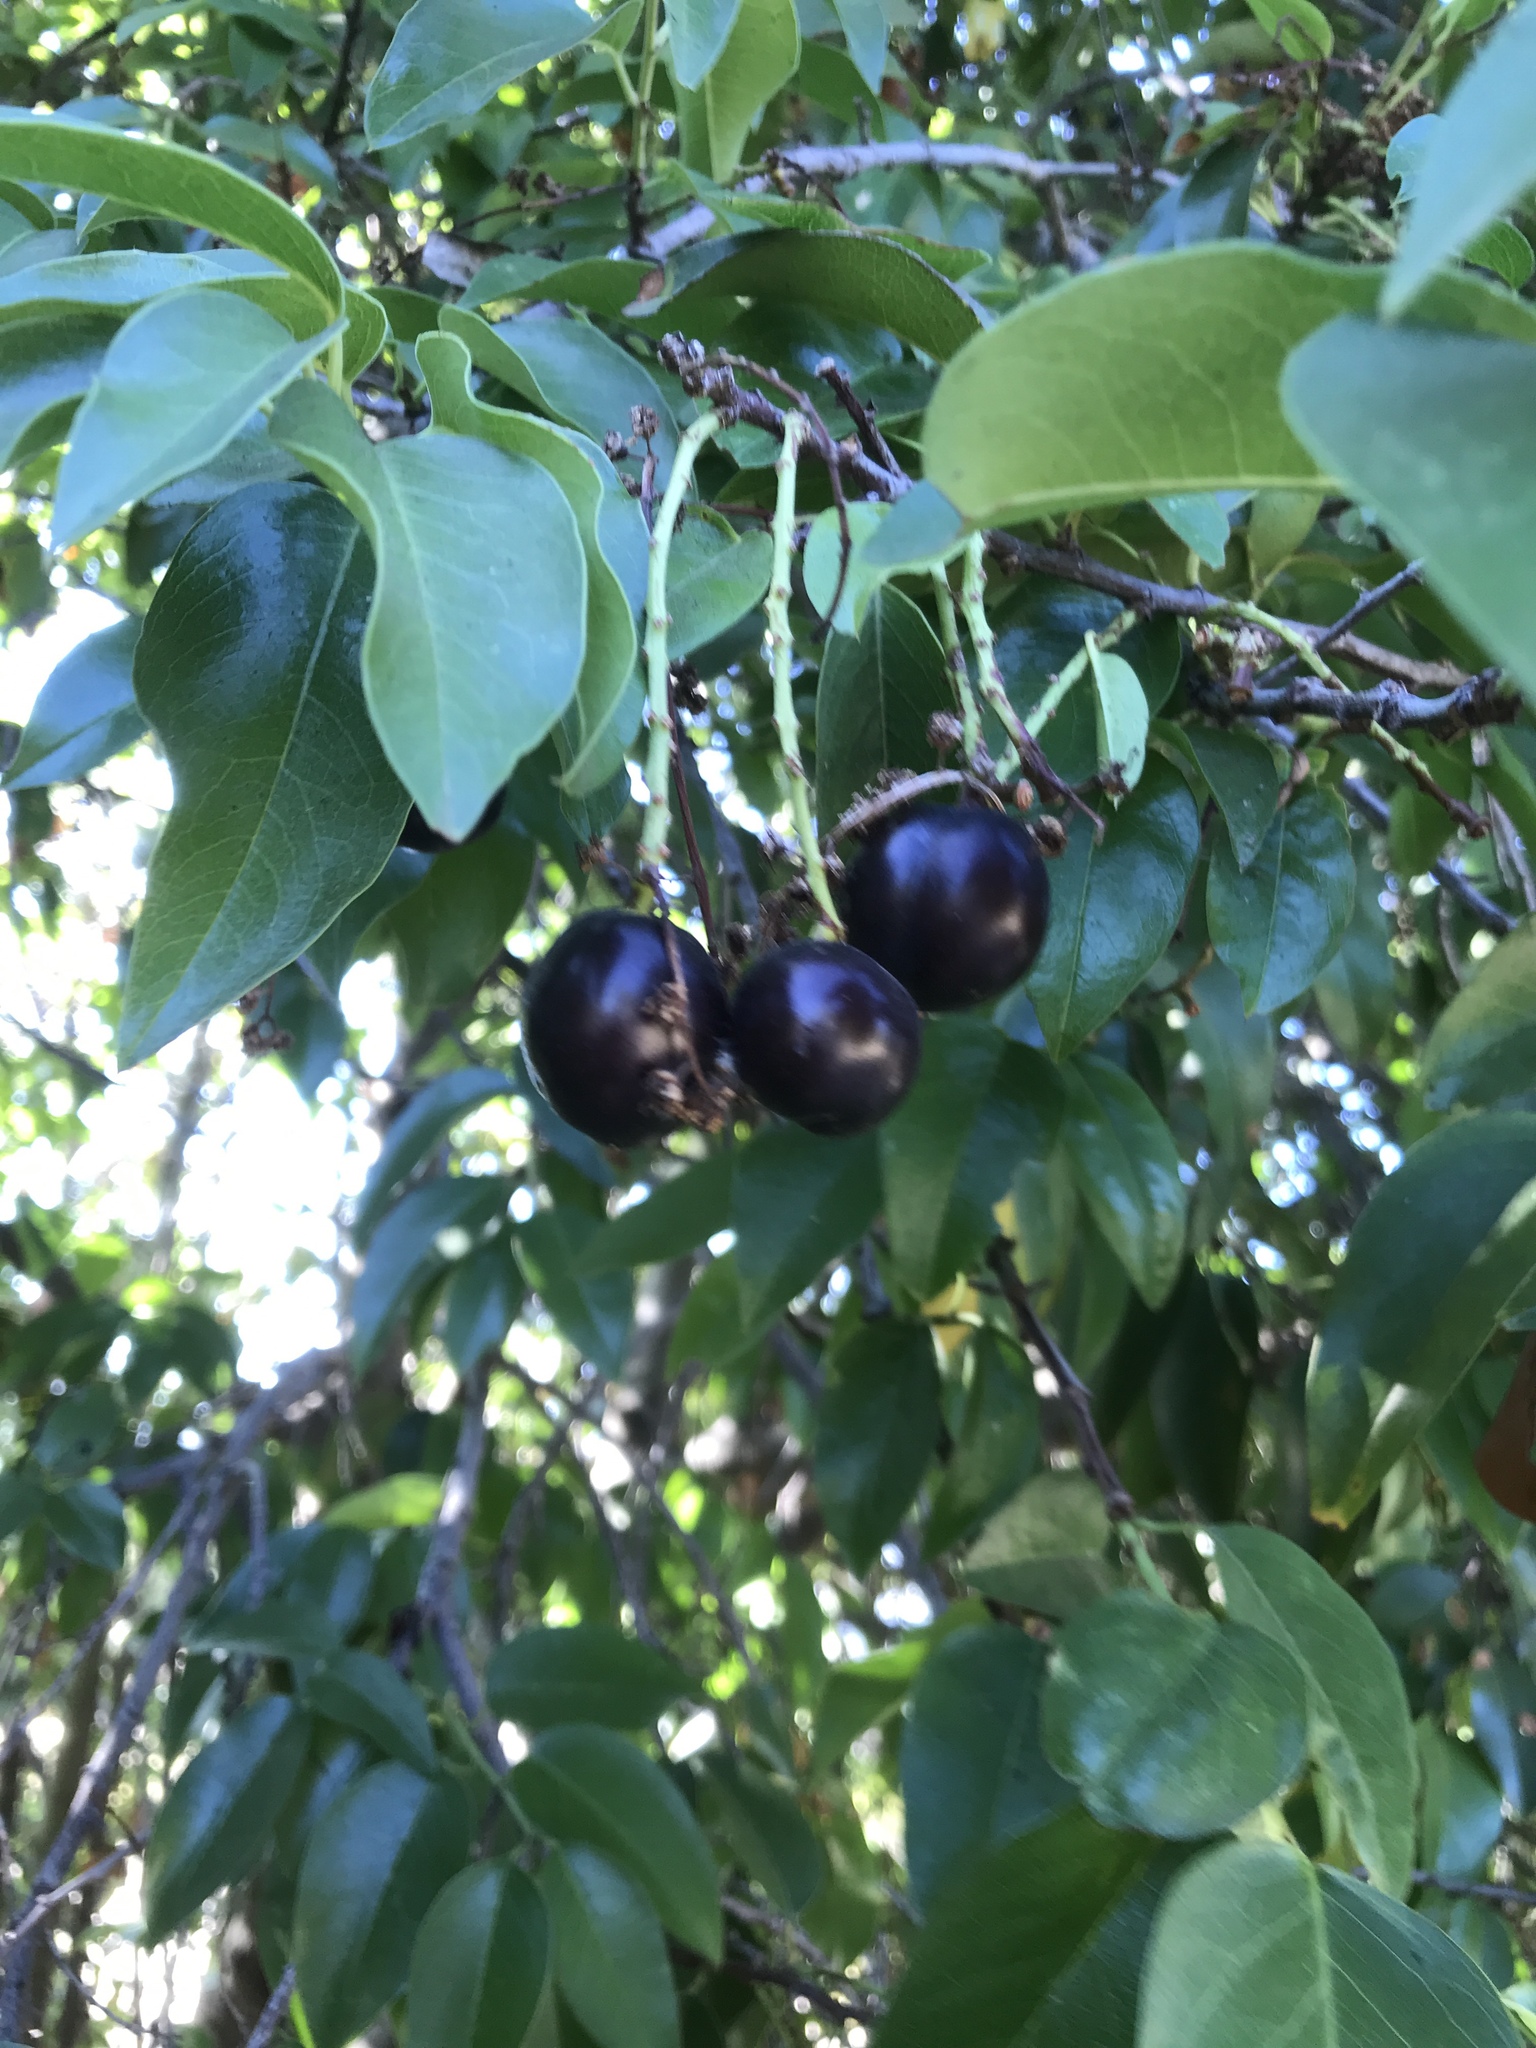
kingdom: Plantae
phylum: Tracheophyta
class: Magnoliopsida
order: Rosales
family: Rosaceae
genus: Prunus
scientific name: Prunus ilicifolia
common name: Hollyleaf cherry
